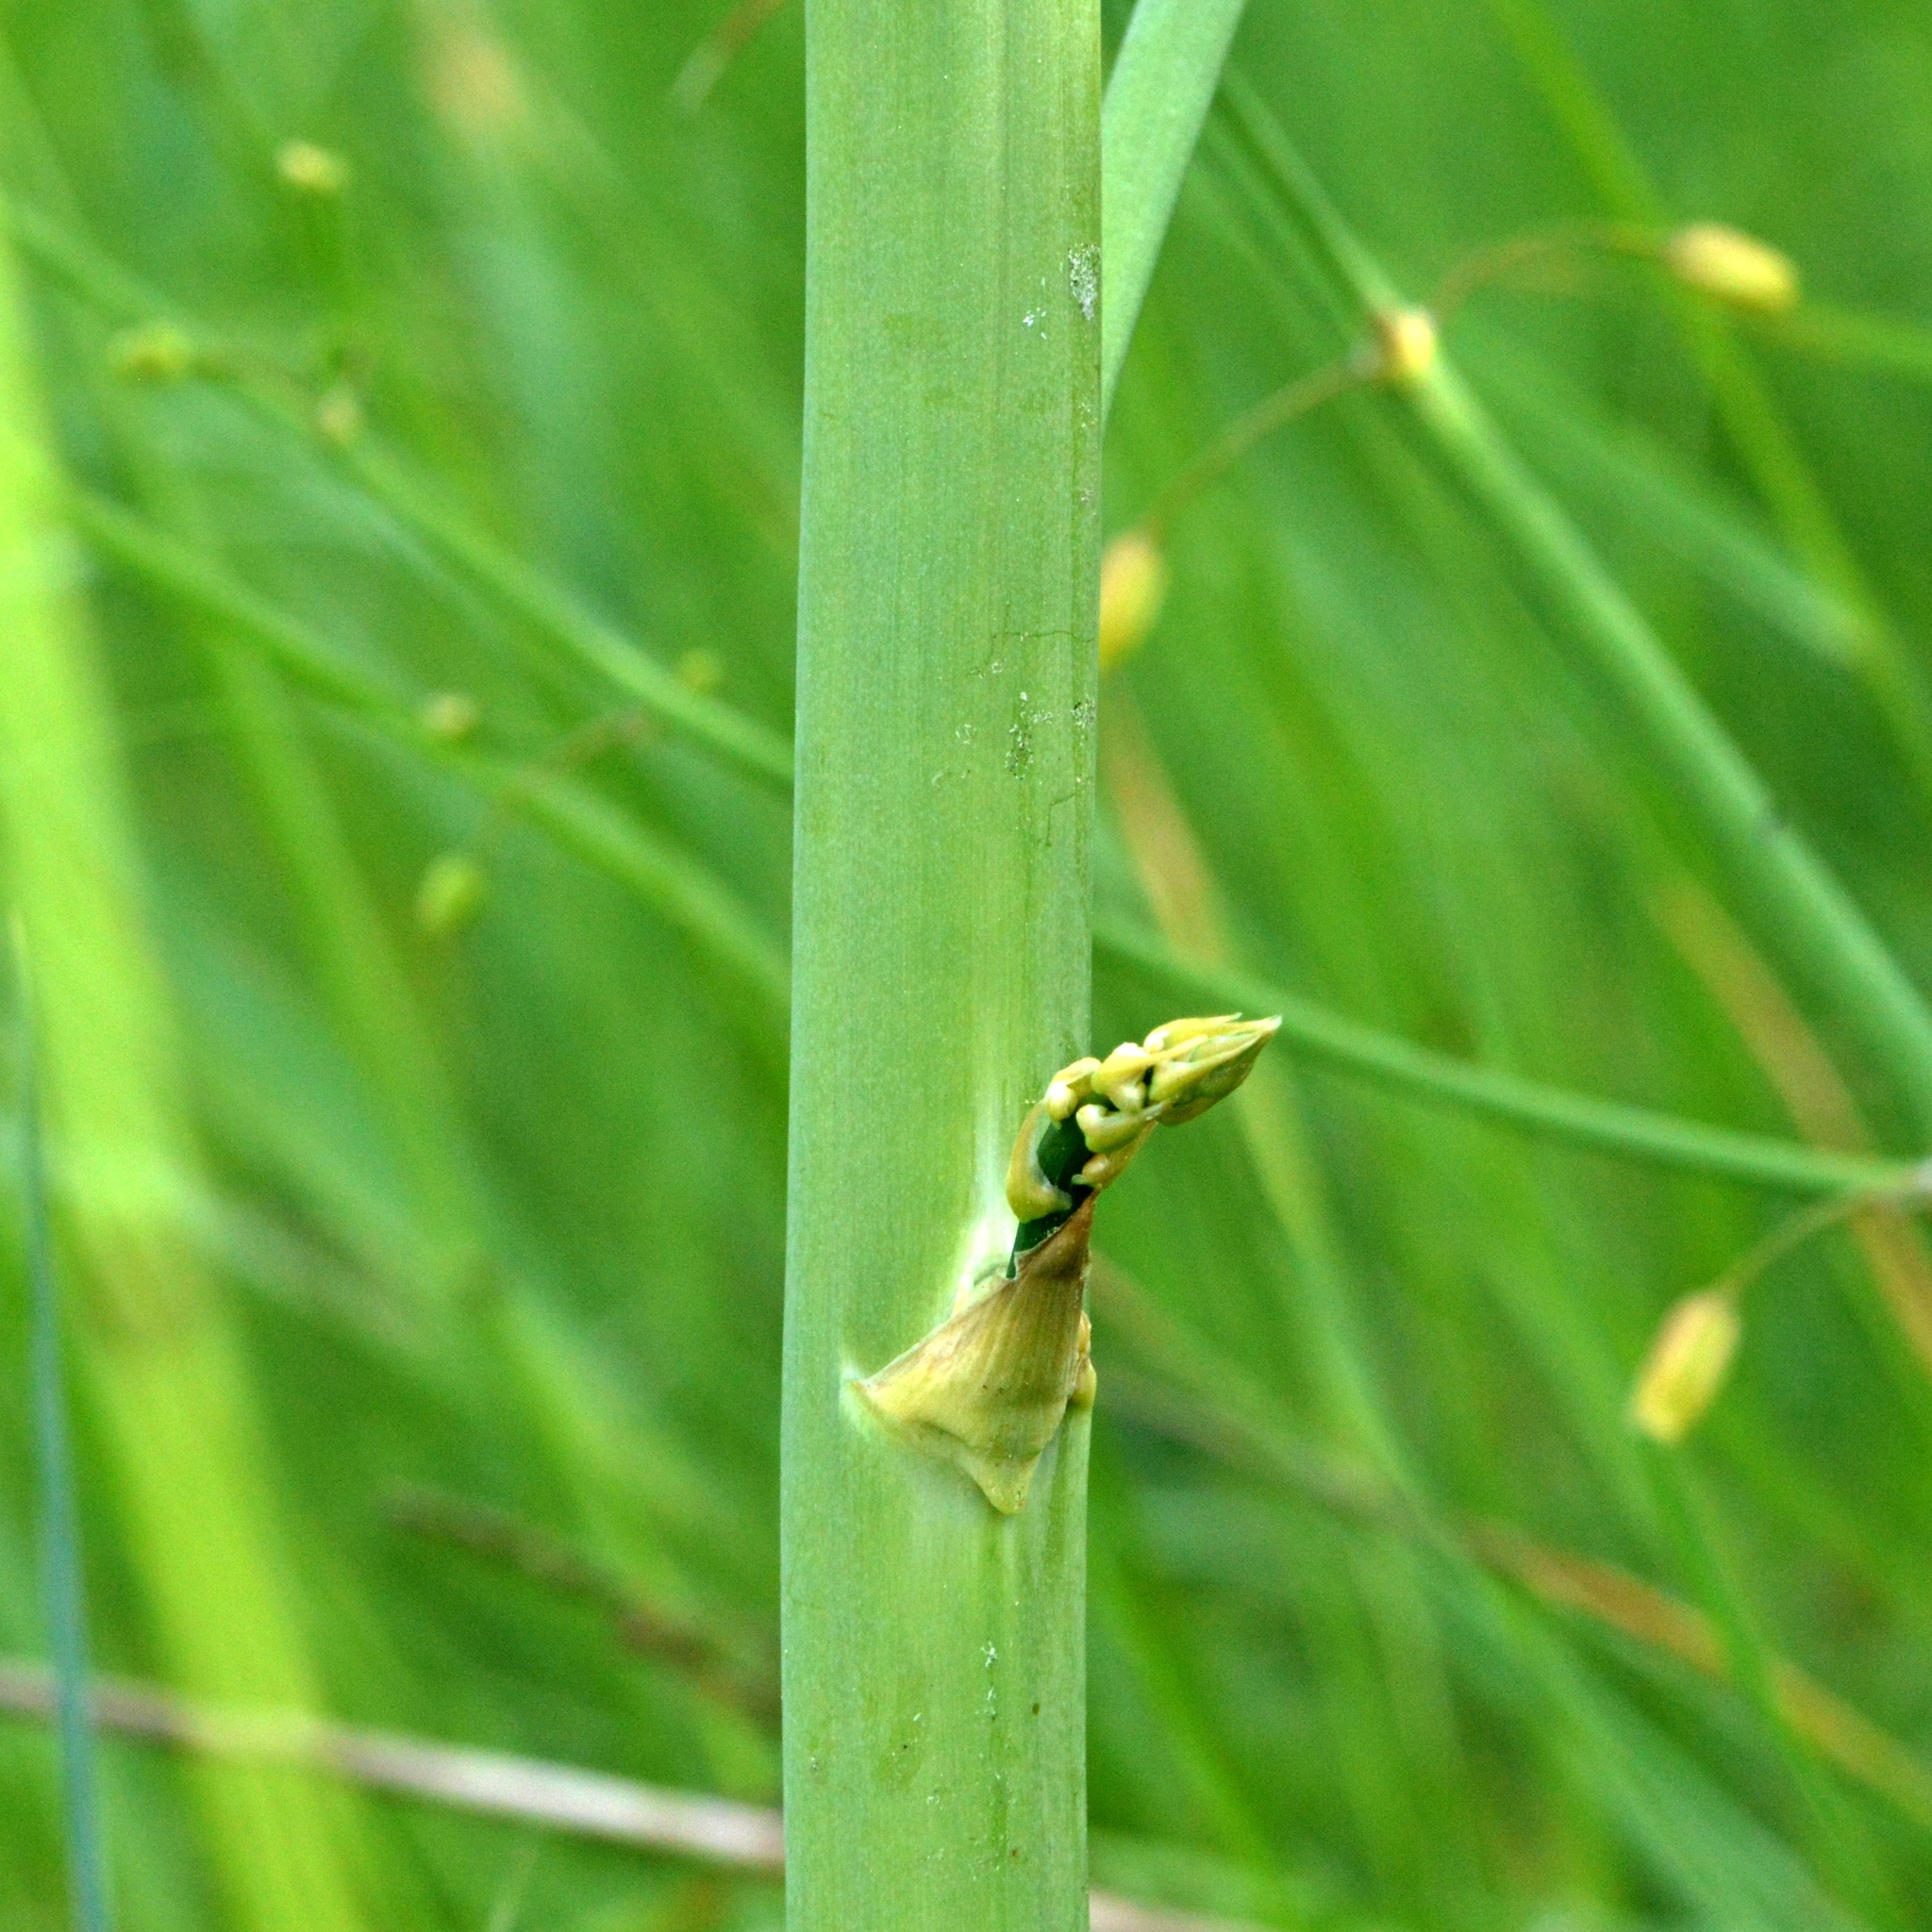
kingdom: Plantae
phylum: Tracheophyta
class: Liliopsida
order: Asparagales
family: Asparagaceae
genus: Asparagus
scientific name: Asparagus officinalis
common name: Garden asparagus
